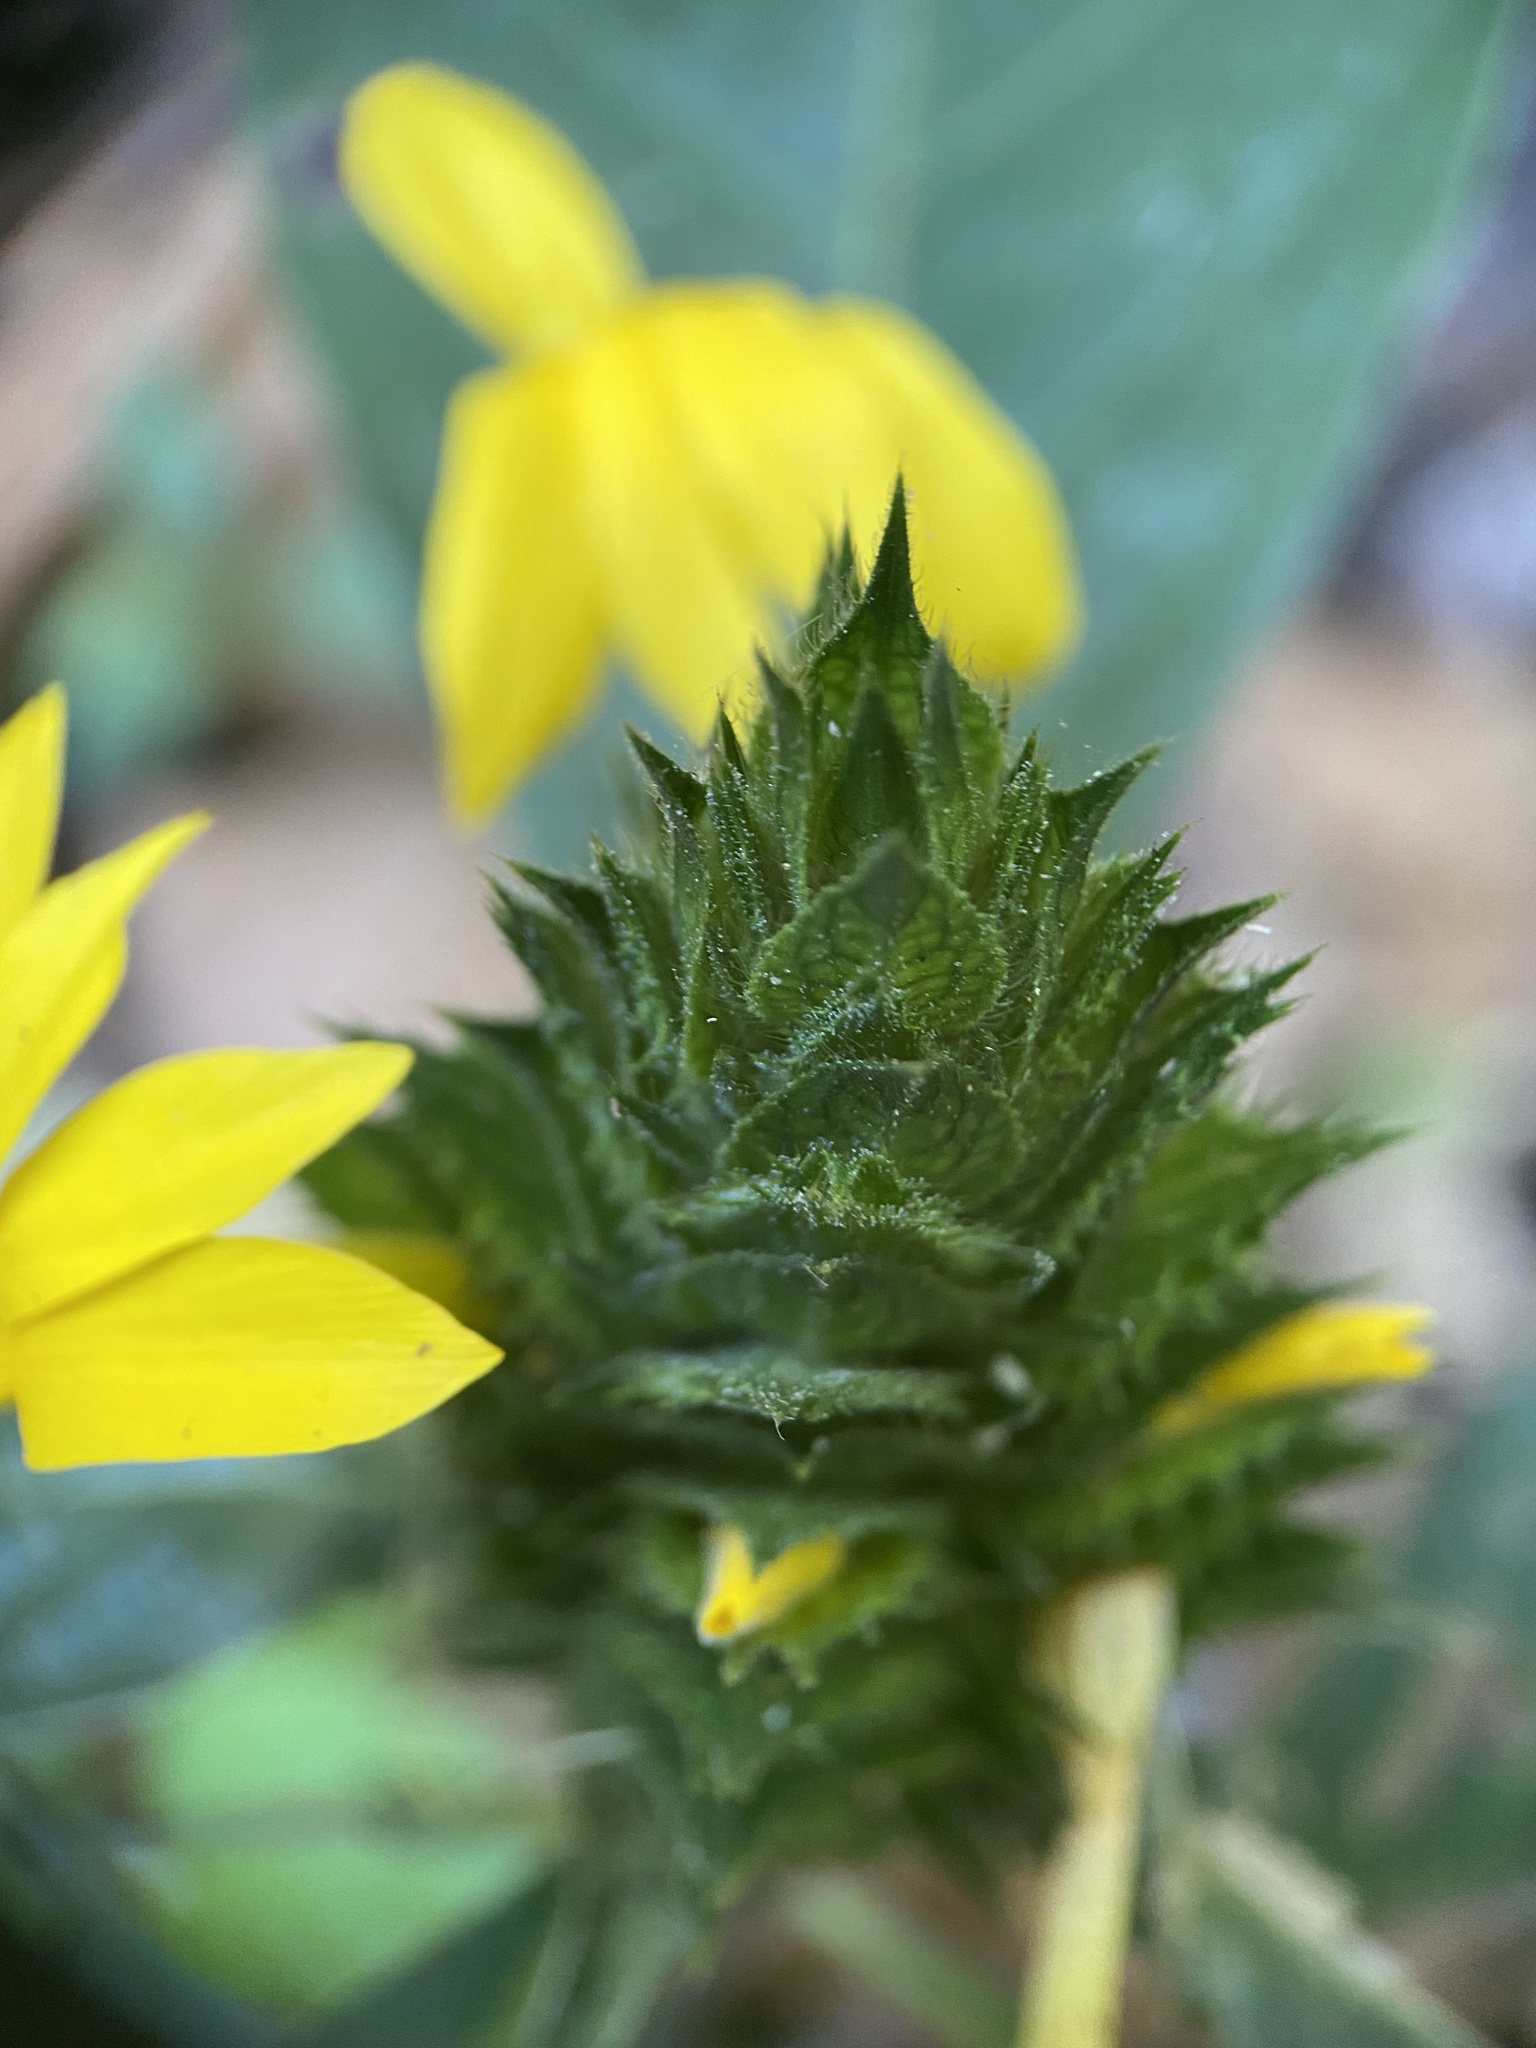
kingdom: Plantae
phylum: Tracheophyta
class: Magnoliopsida
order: Lamiales
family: Acanthaceae
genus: Barleria
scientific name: Barleria oenotheroides
